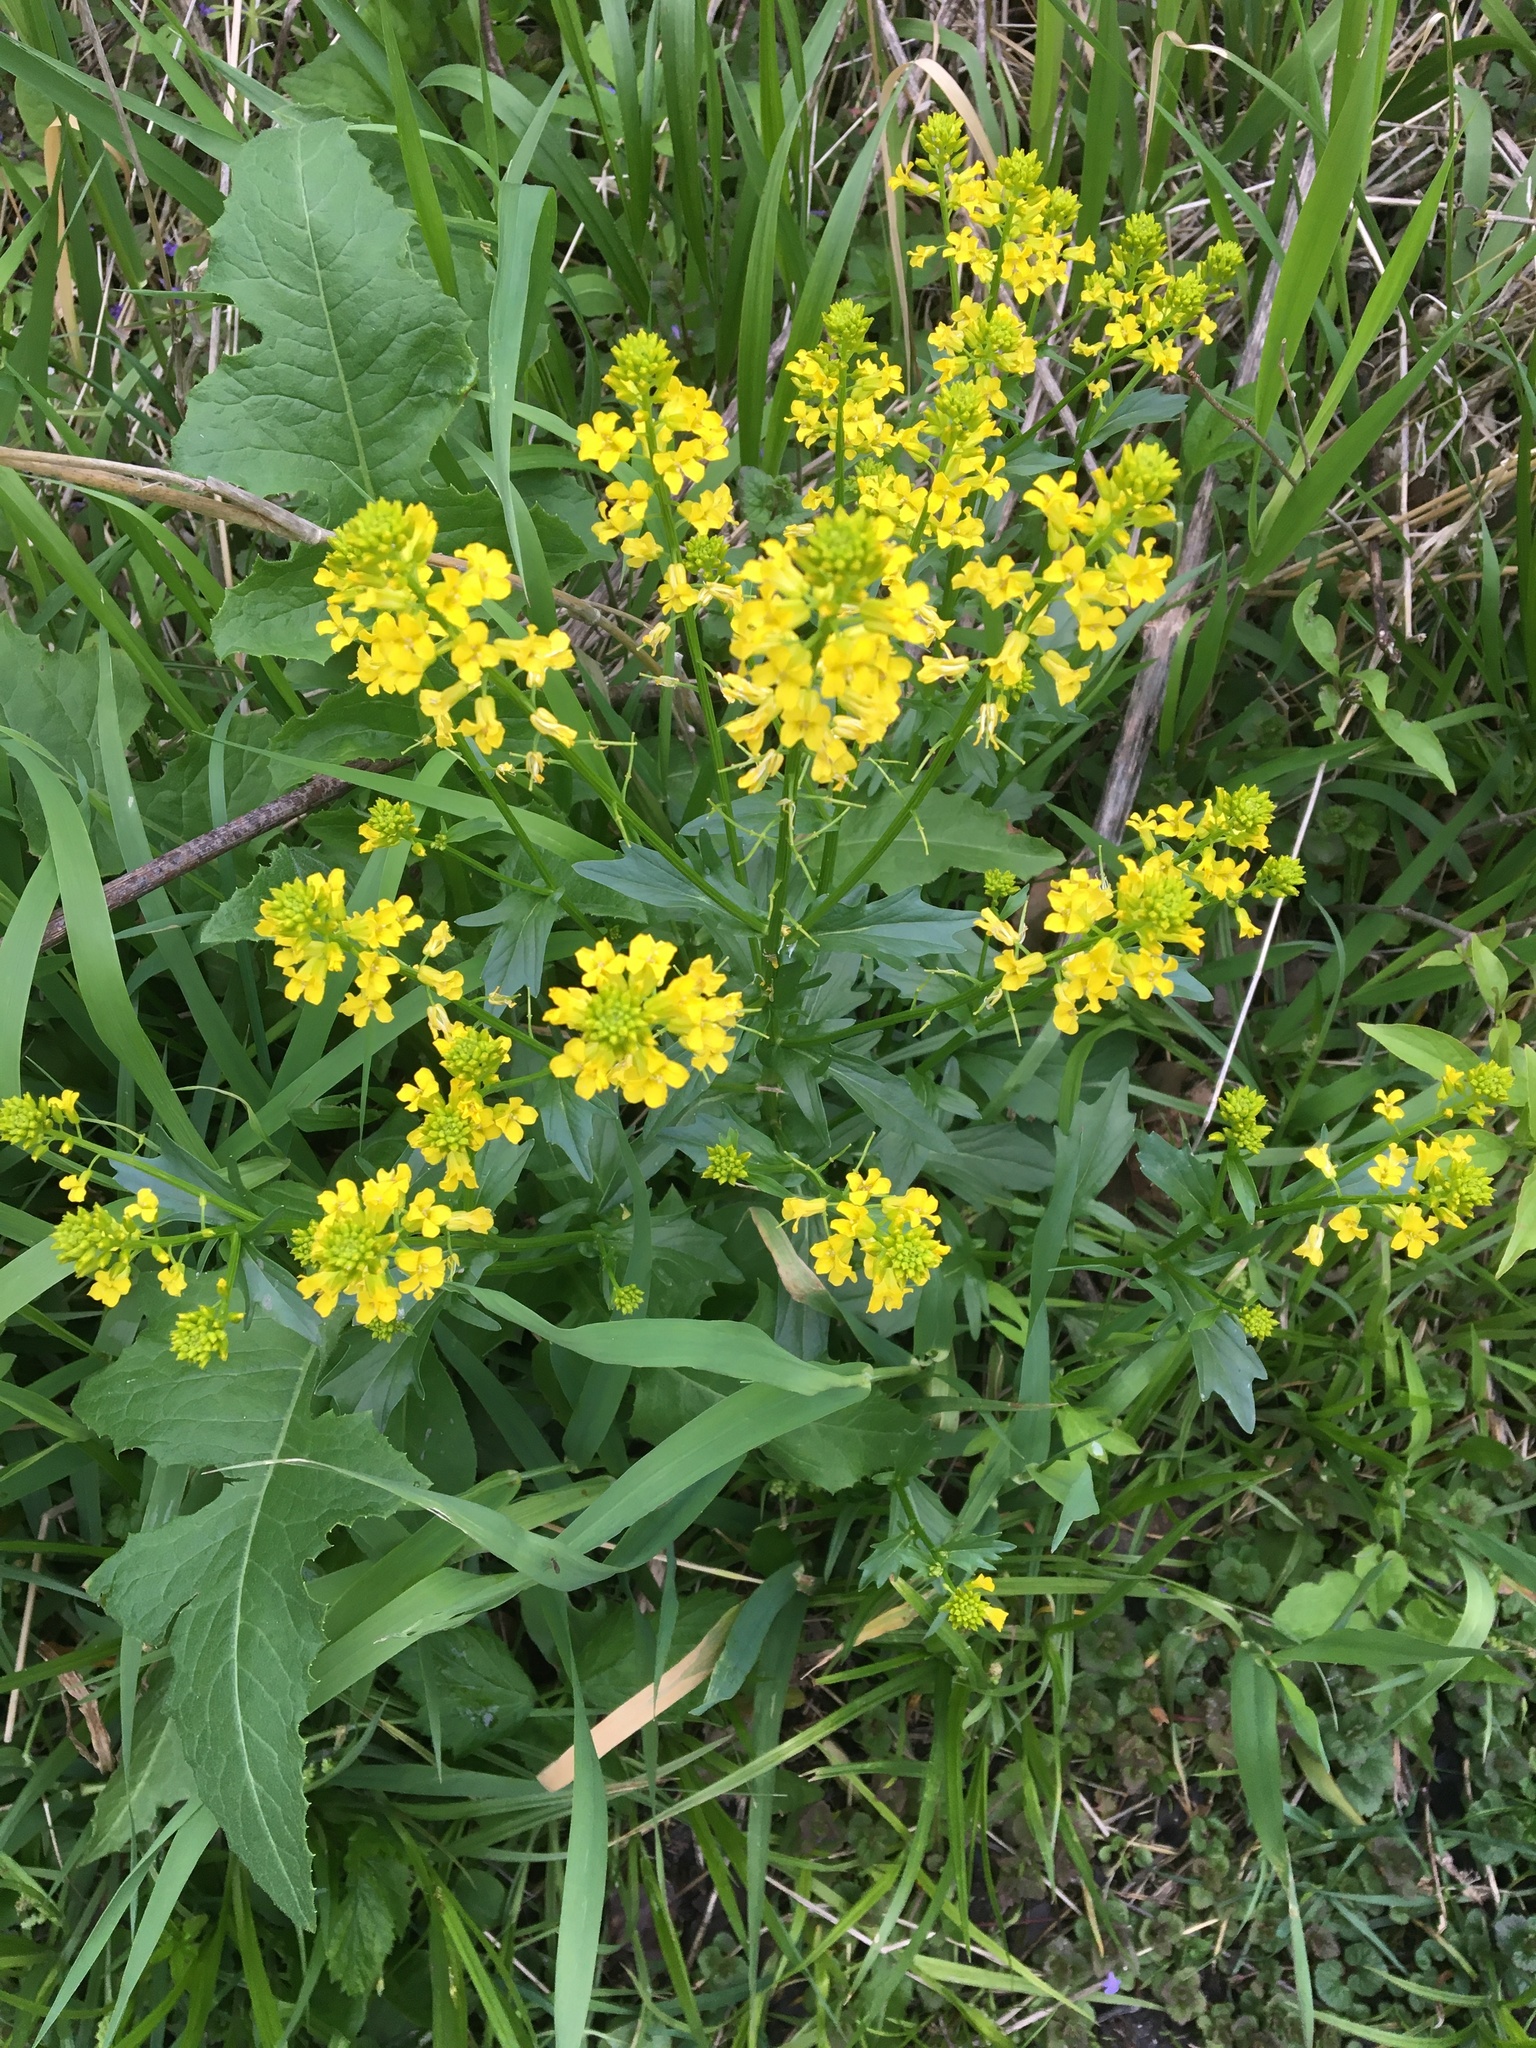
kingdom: Plantae
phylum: Tracheophyta
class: Magnoliopsida
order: Brassicales
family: Brassicaceae
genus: Barbarea
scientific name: Barbarea vulgaris
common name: Cressy-greens
